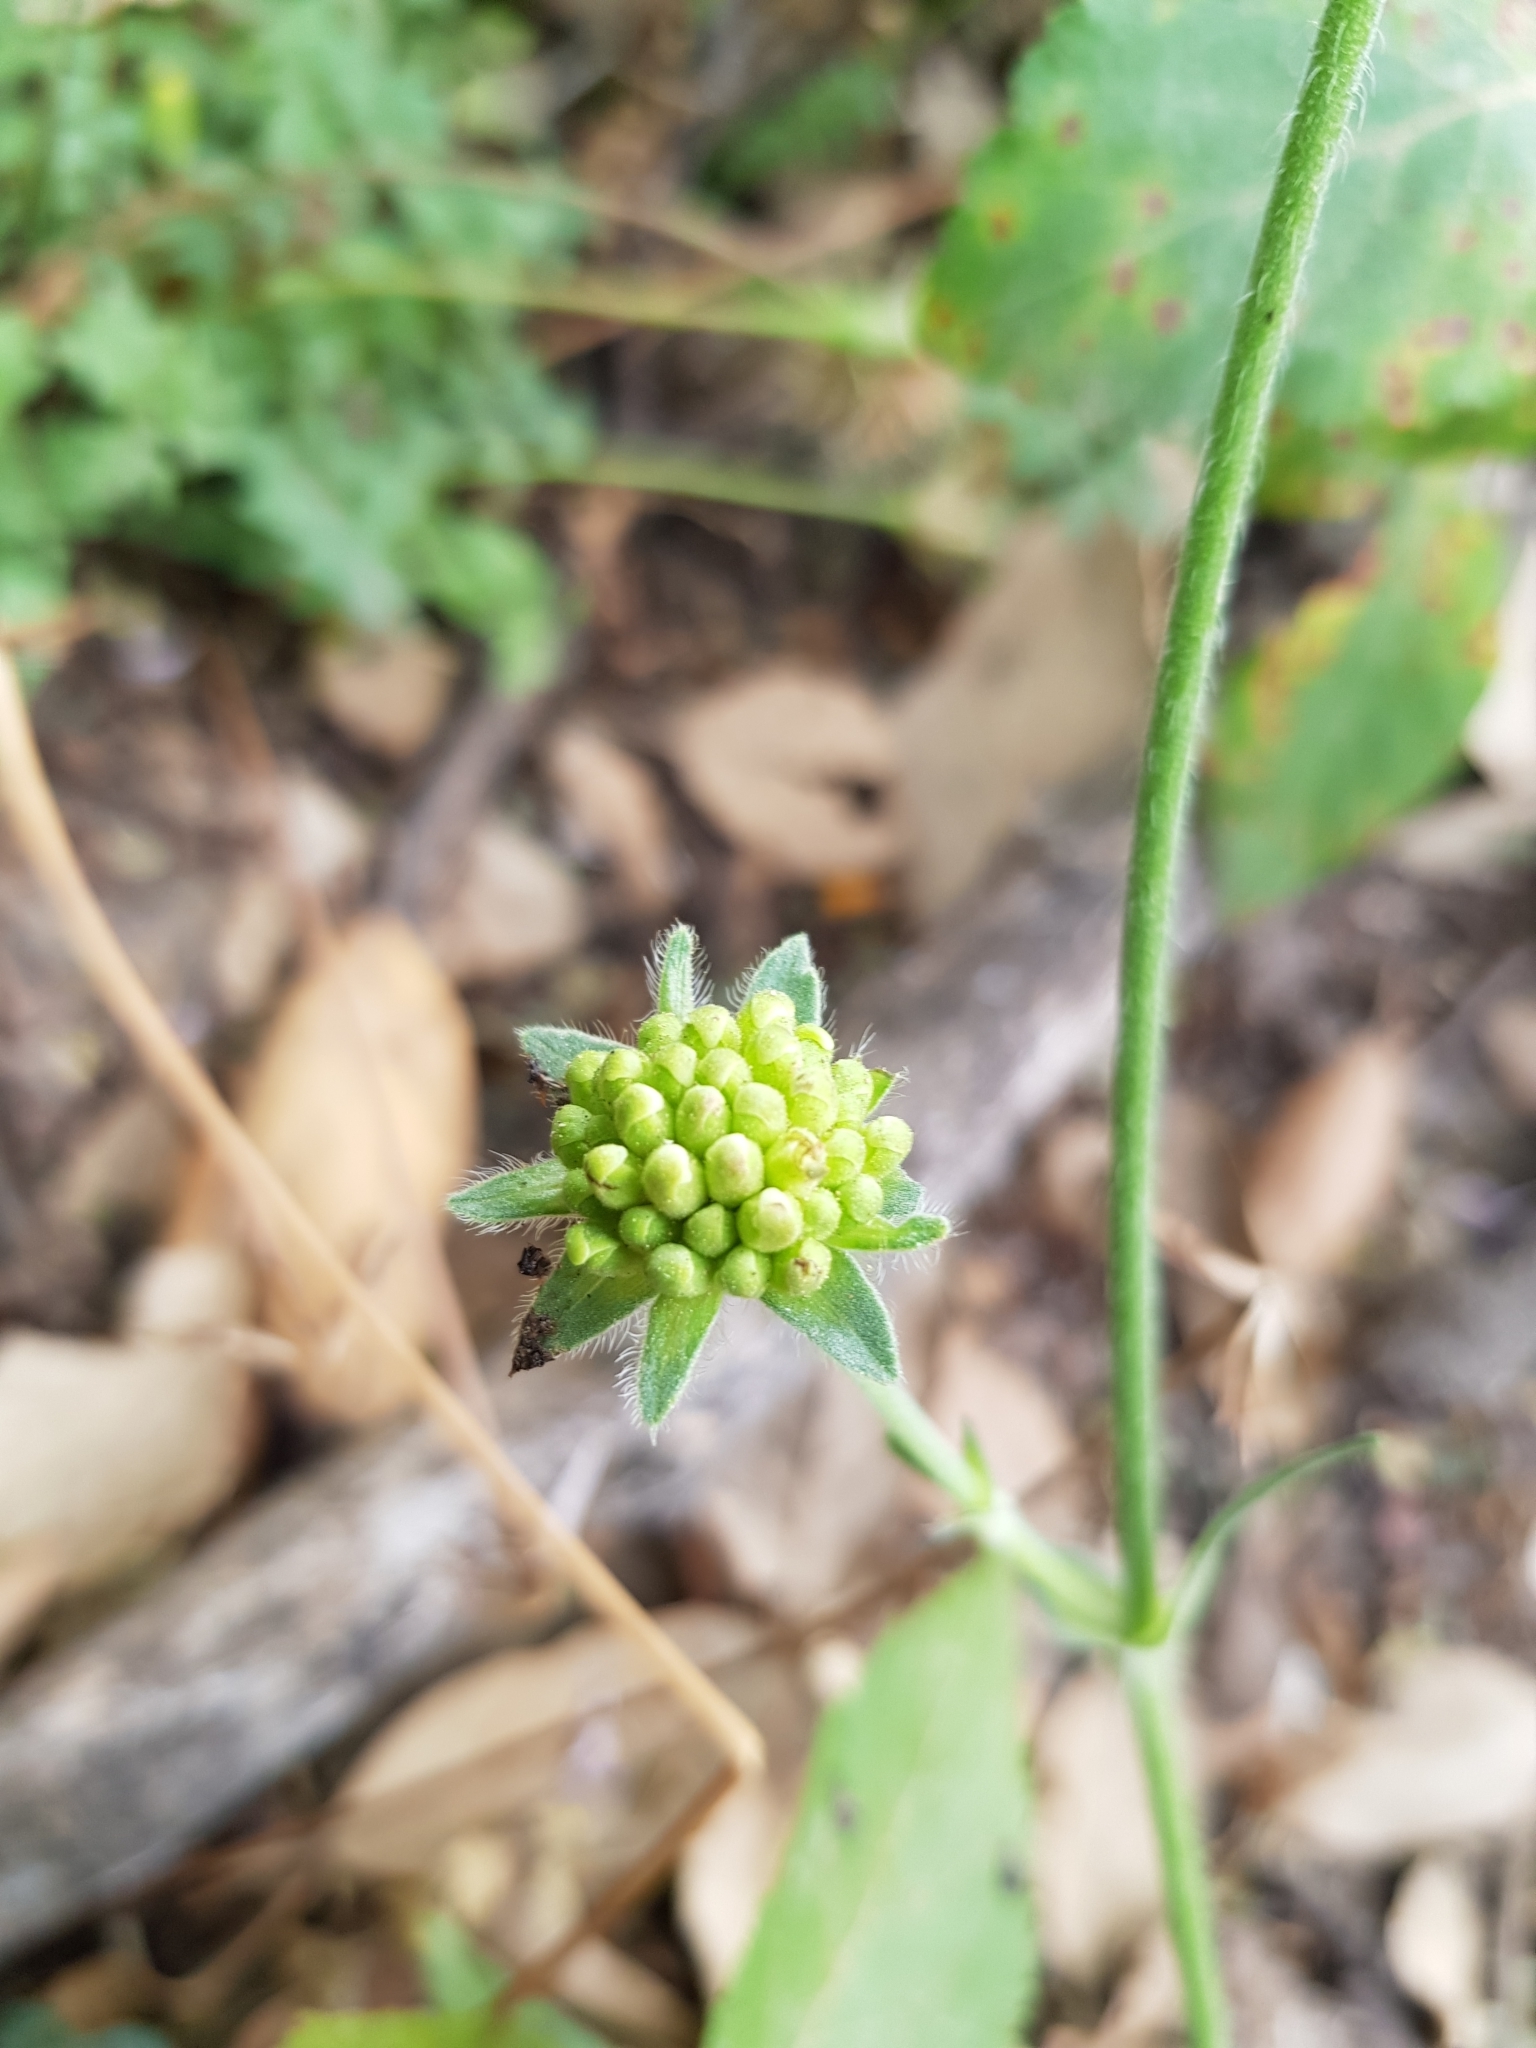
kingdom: Plantae
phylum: Tracheophyta
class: Magnoliopsida
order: Dipsacales
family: Caprifoliaceae
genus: Knautia
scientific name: Knautia mauritanica
